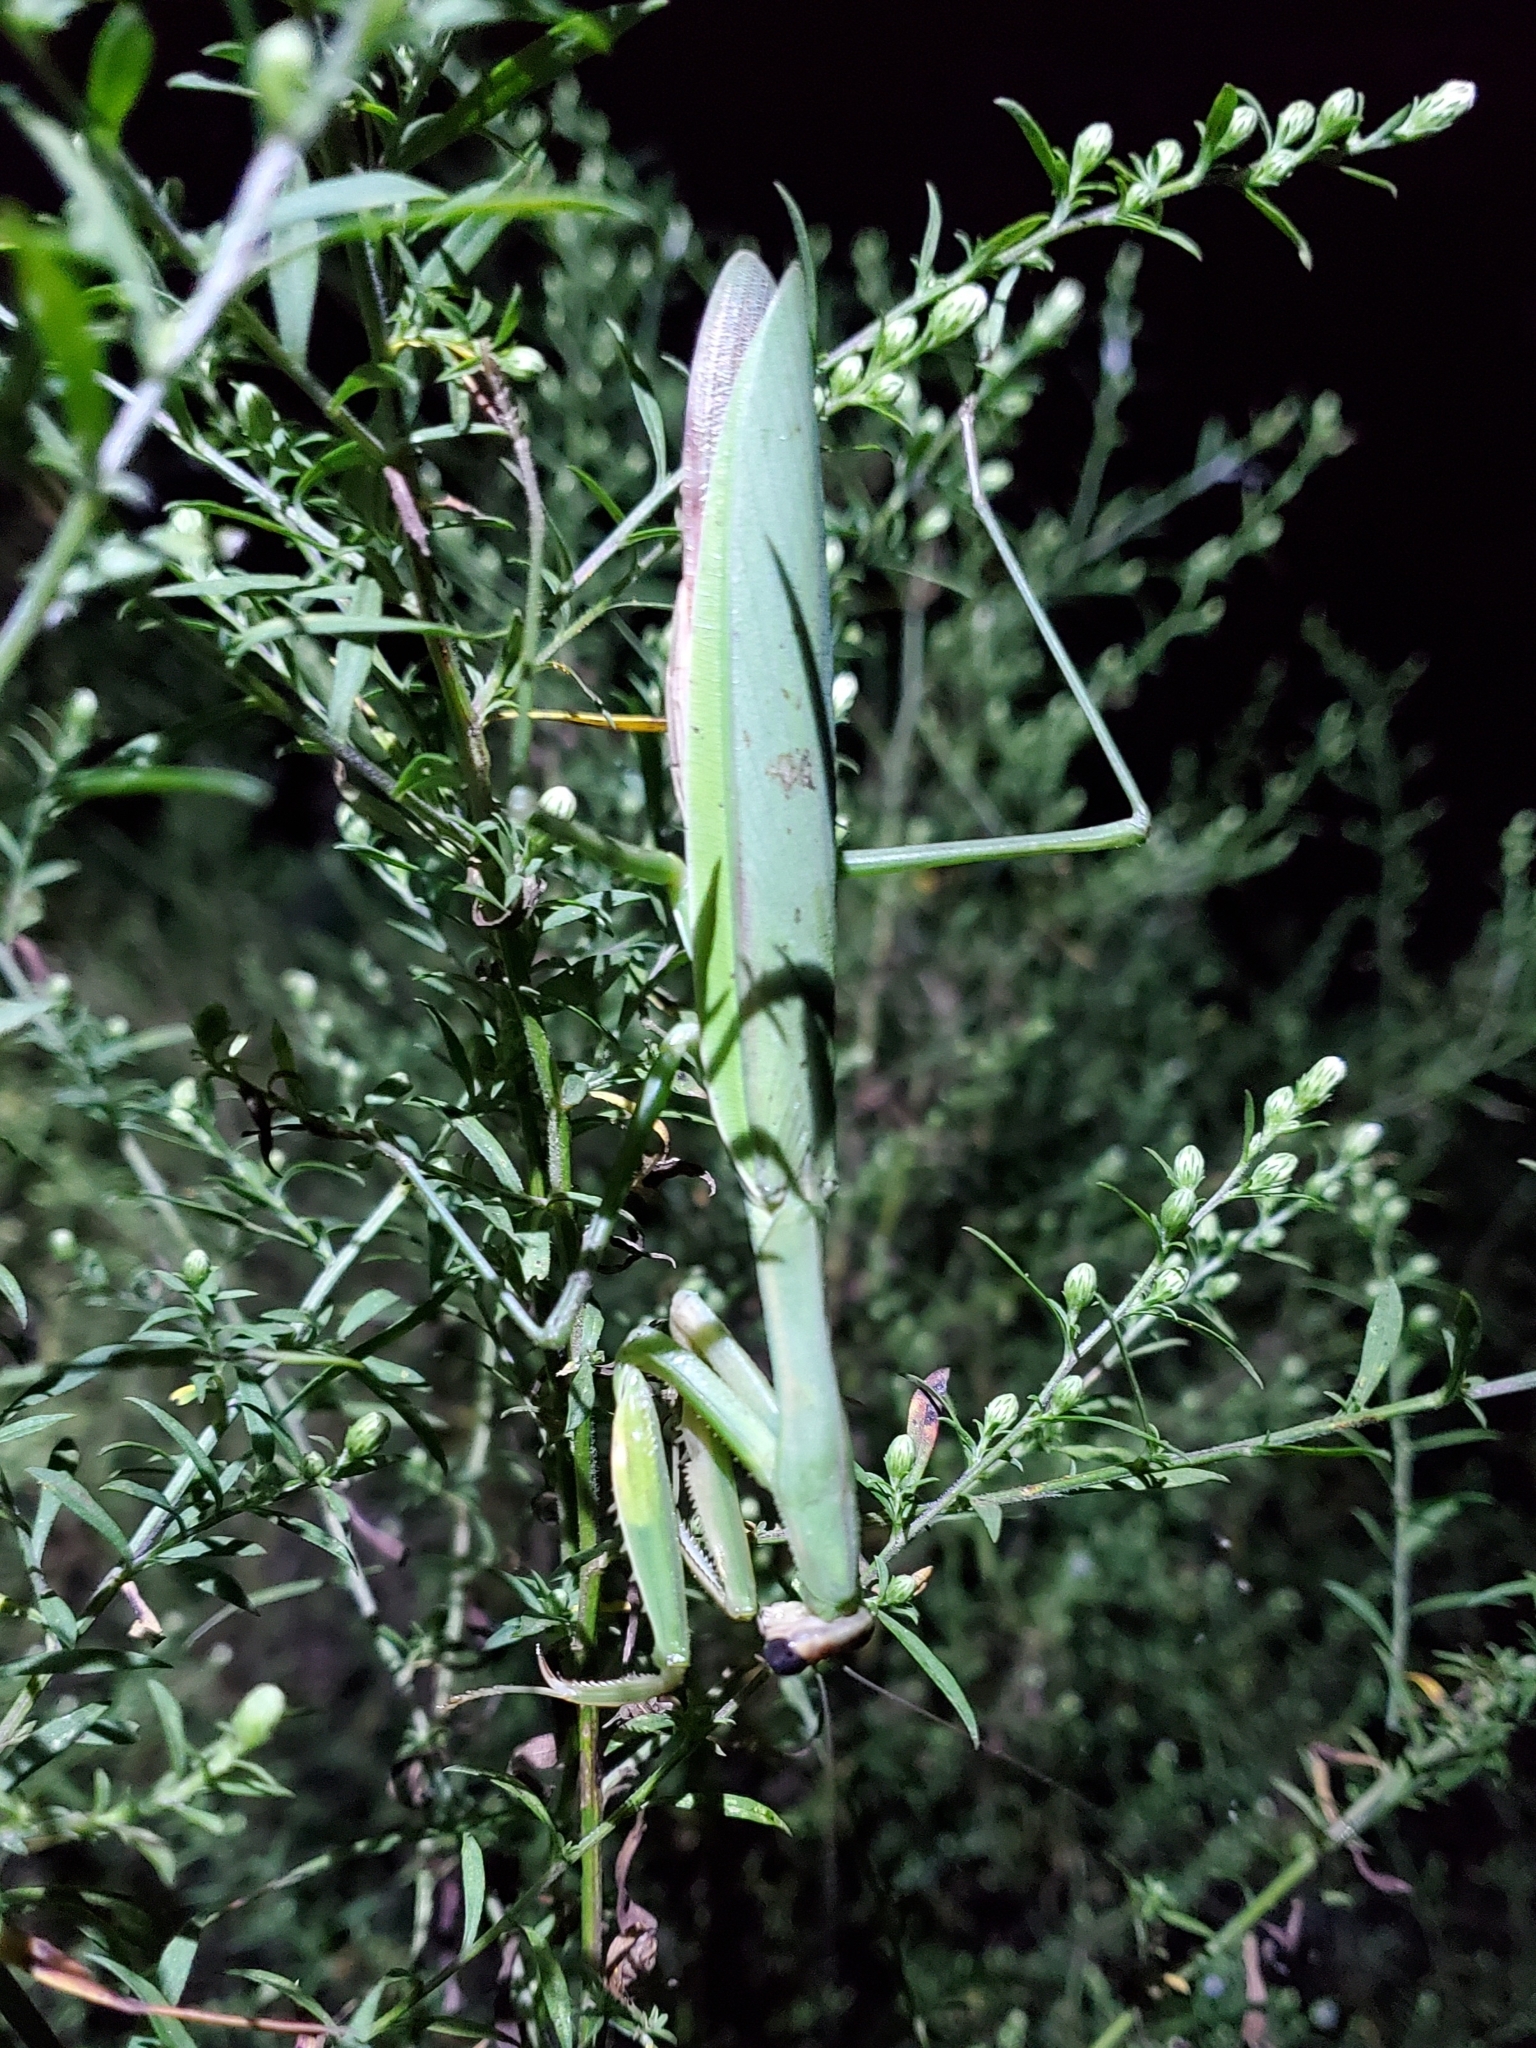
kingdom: Animalia
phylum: Arthropoda
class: Insecta
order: Mantodea
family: Mantidae
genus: Tenodera
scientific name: Tenodera sinensis
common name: Chinese mantis
